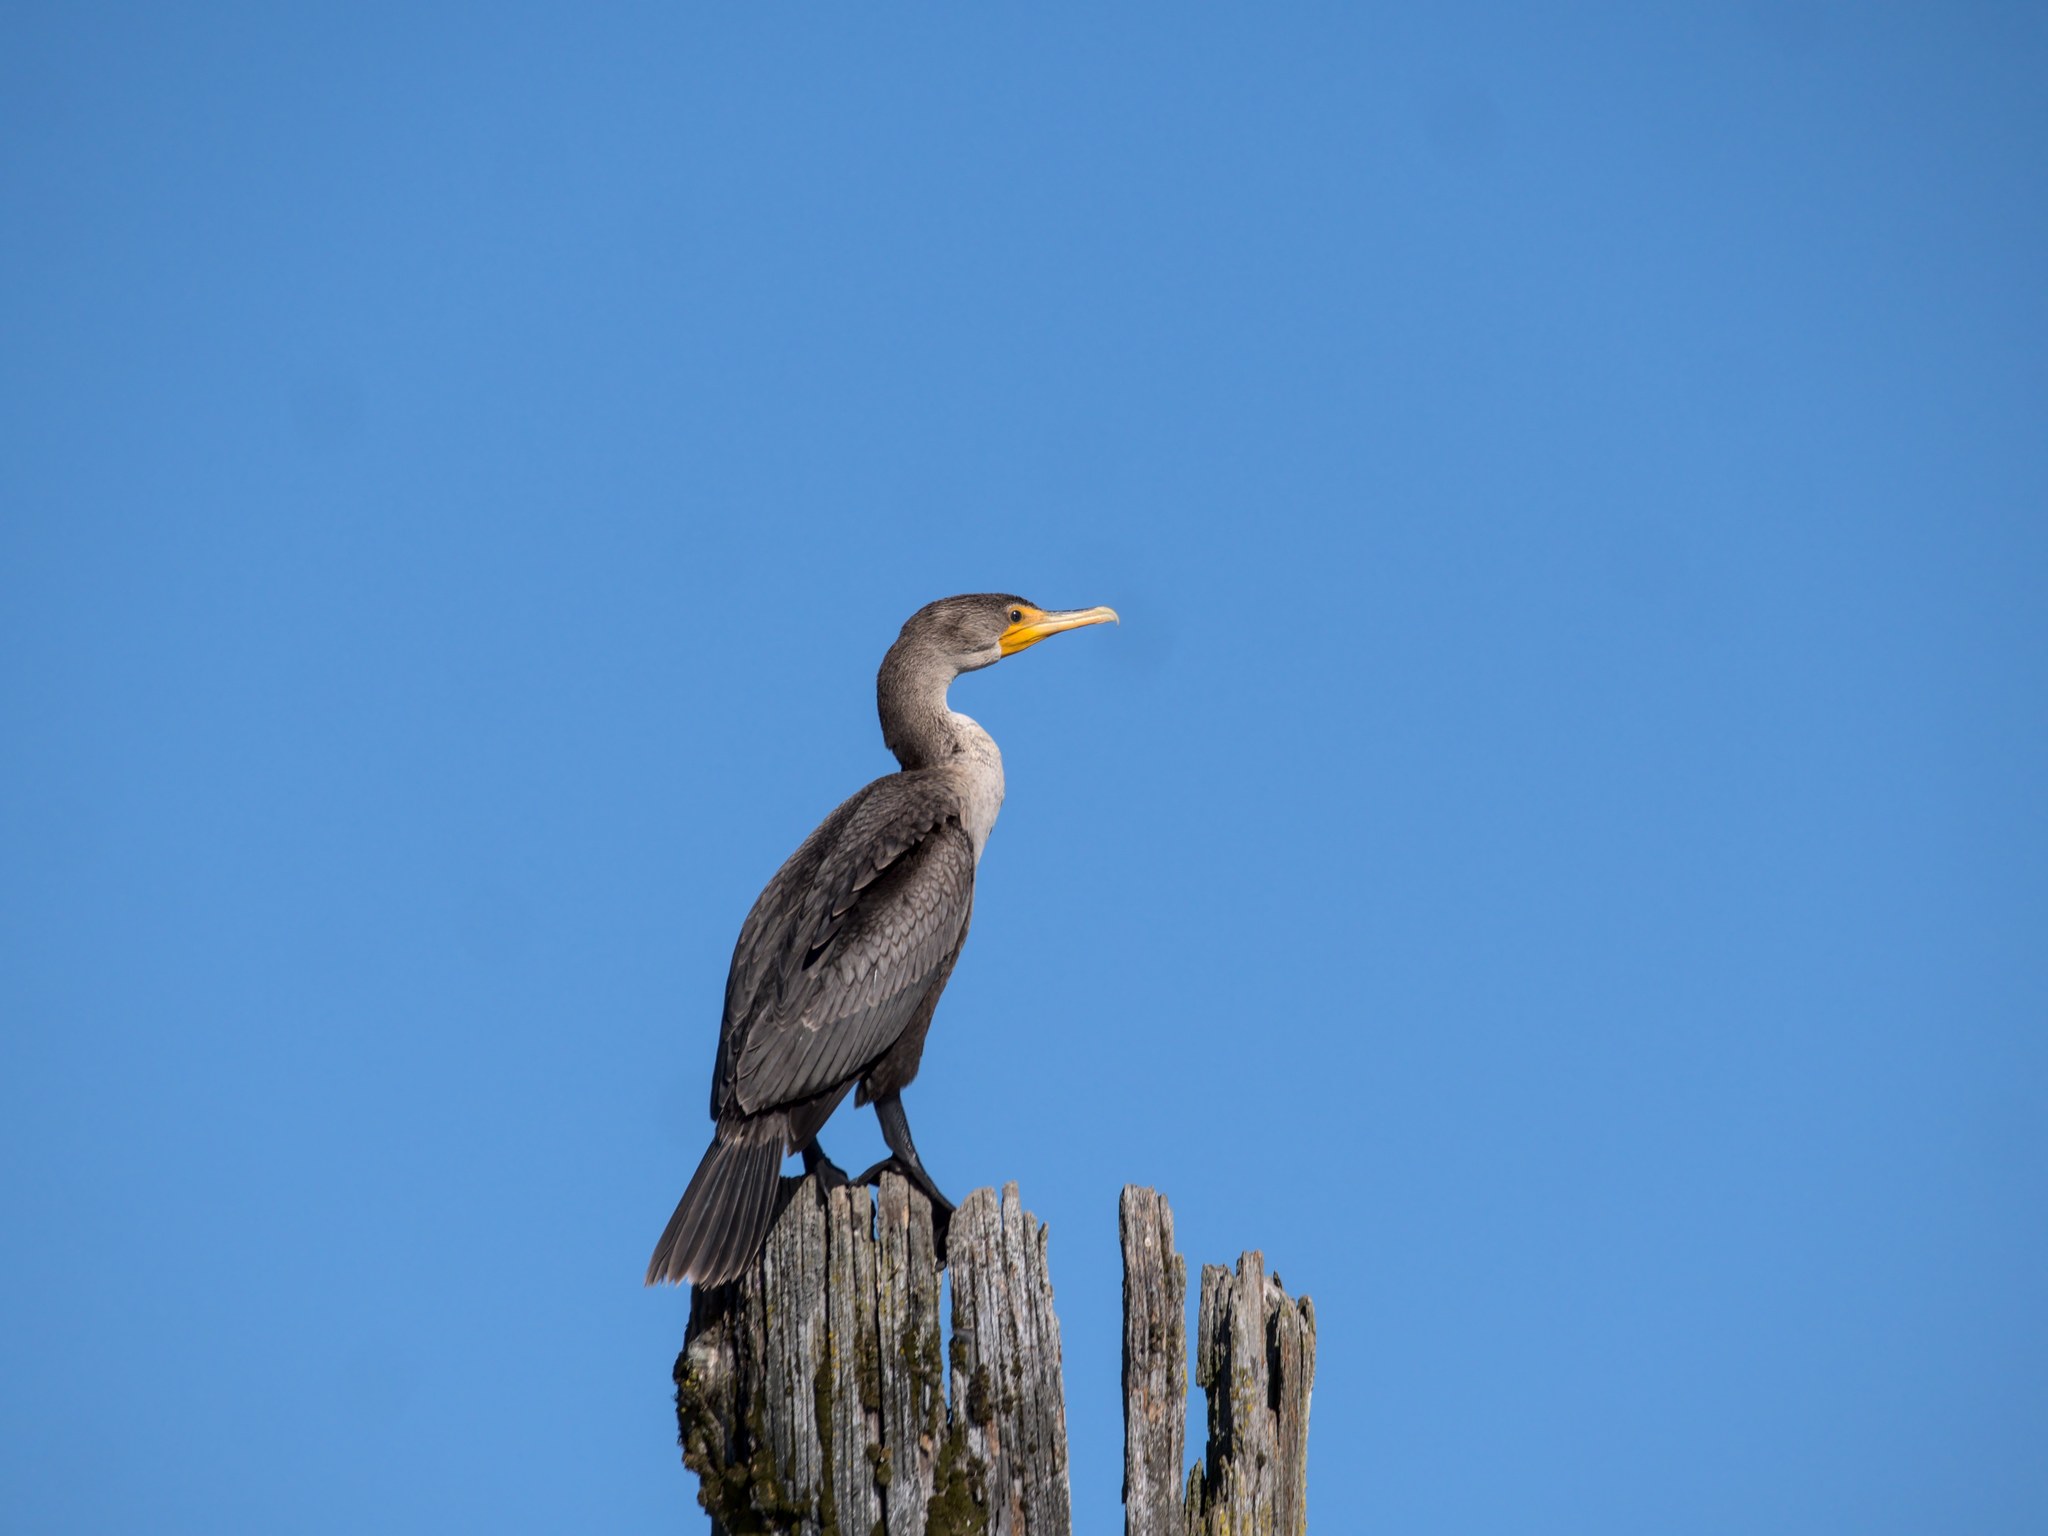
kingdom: Animalia
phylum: Chordata
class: Aves
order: Suliformes
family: Phalacrocoracidae
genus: Phalacrocorax
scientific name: Phalacrocorax auritus
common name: Double-crested cormorant
